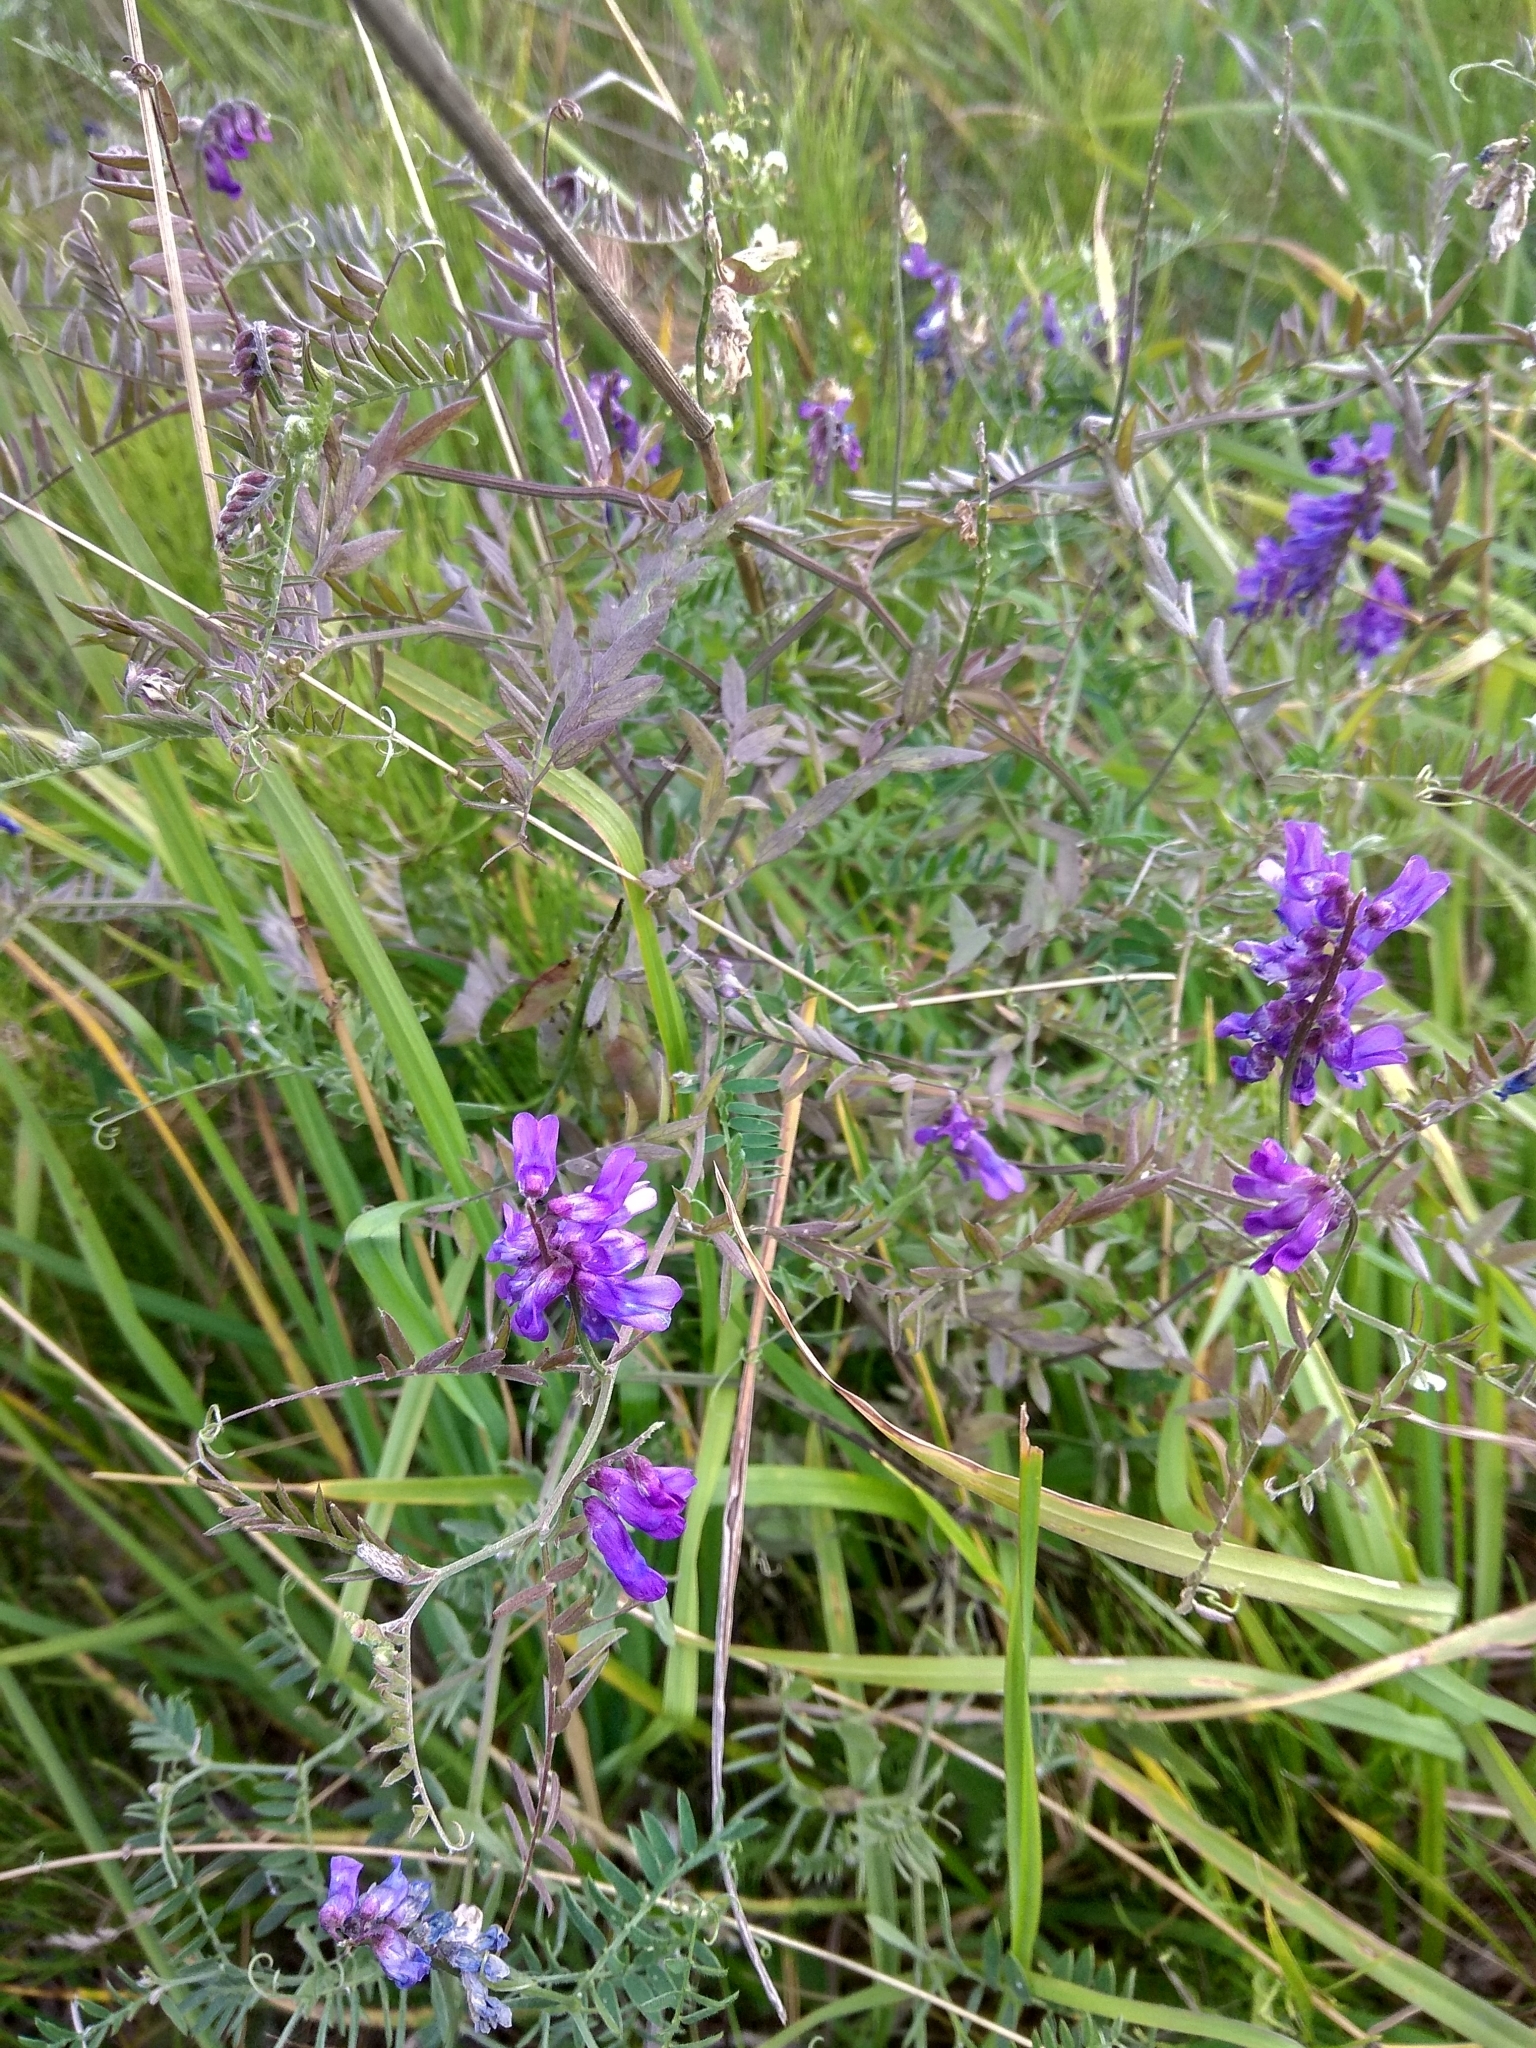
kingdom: Plantae
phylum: Tracheophyta
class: Magnoliopsida
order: Fabales
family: Fabaceae
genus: Vicia
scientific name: Vicia cracca
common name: Bird vetch
